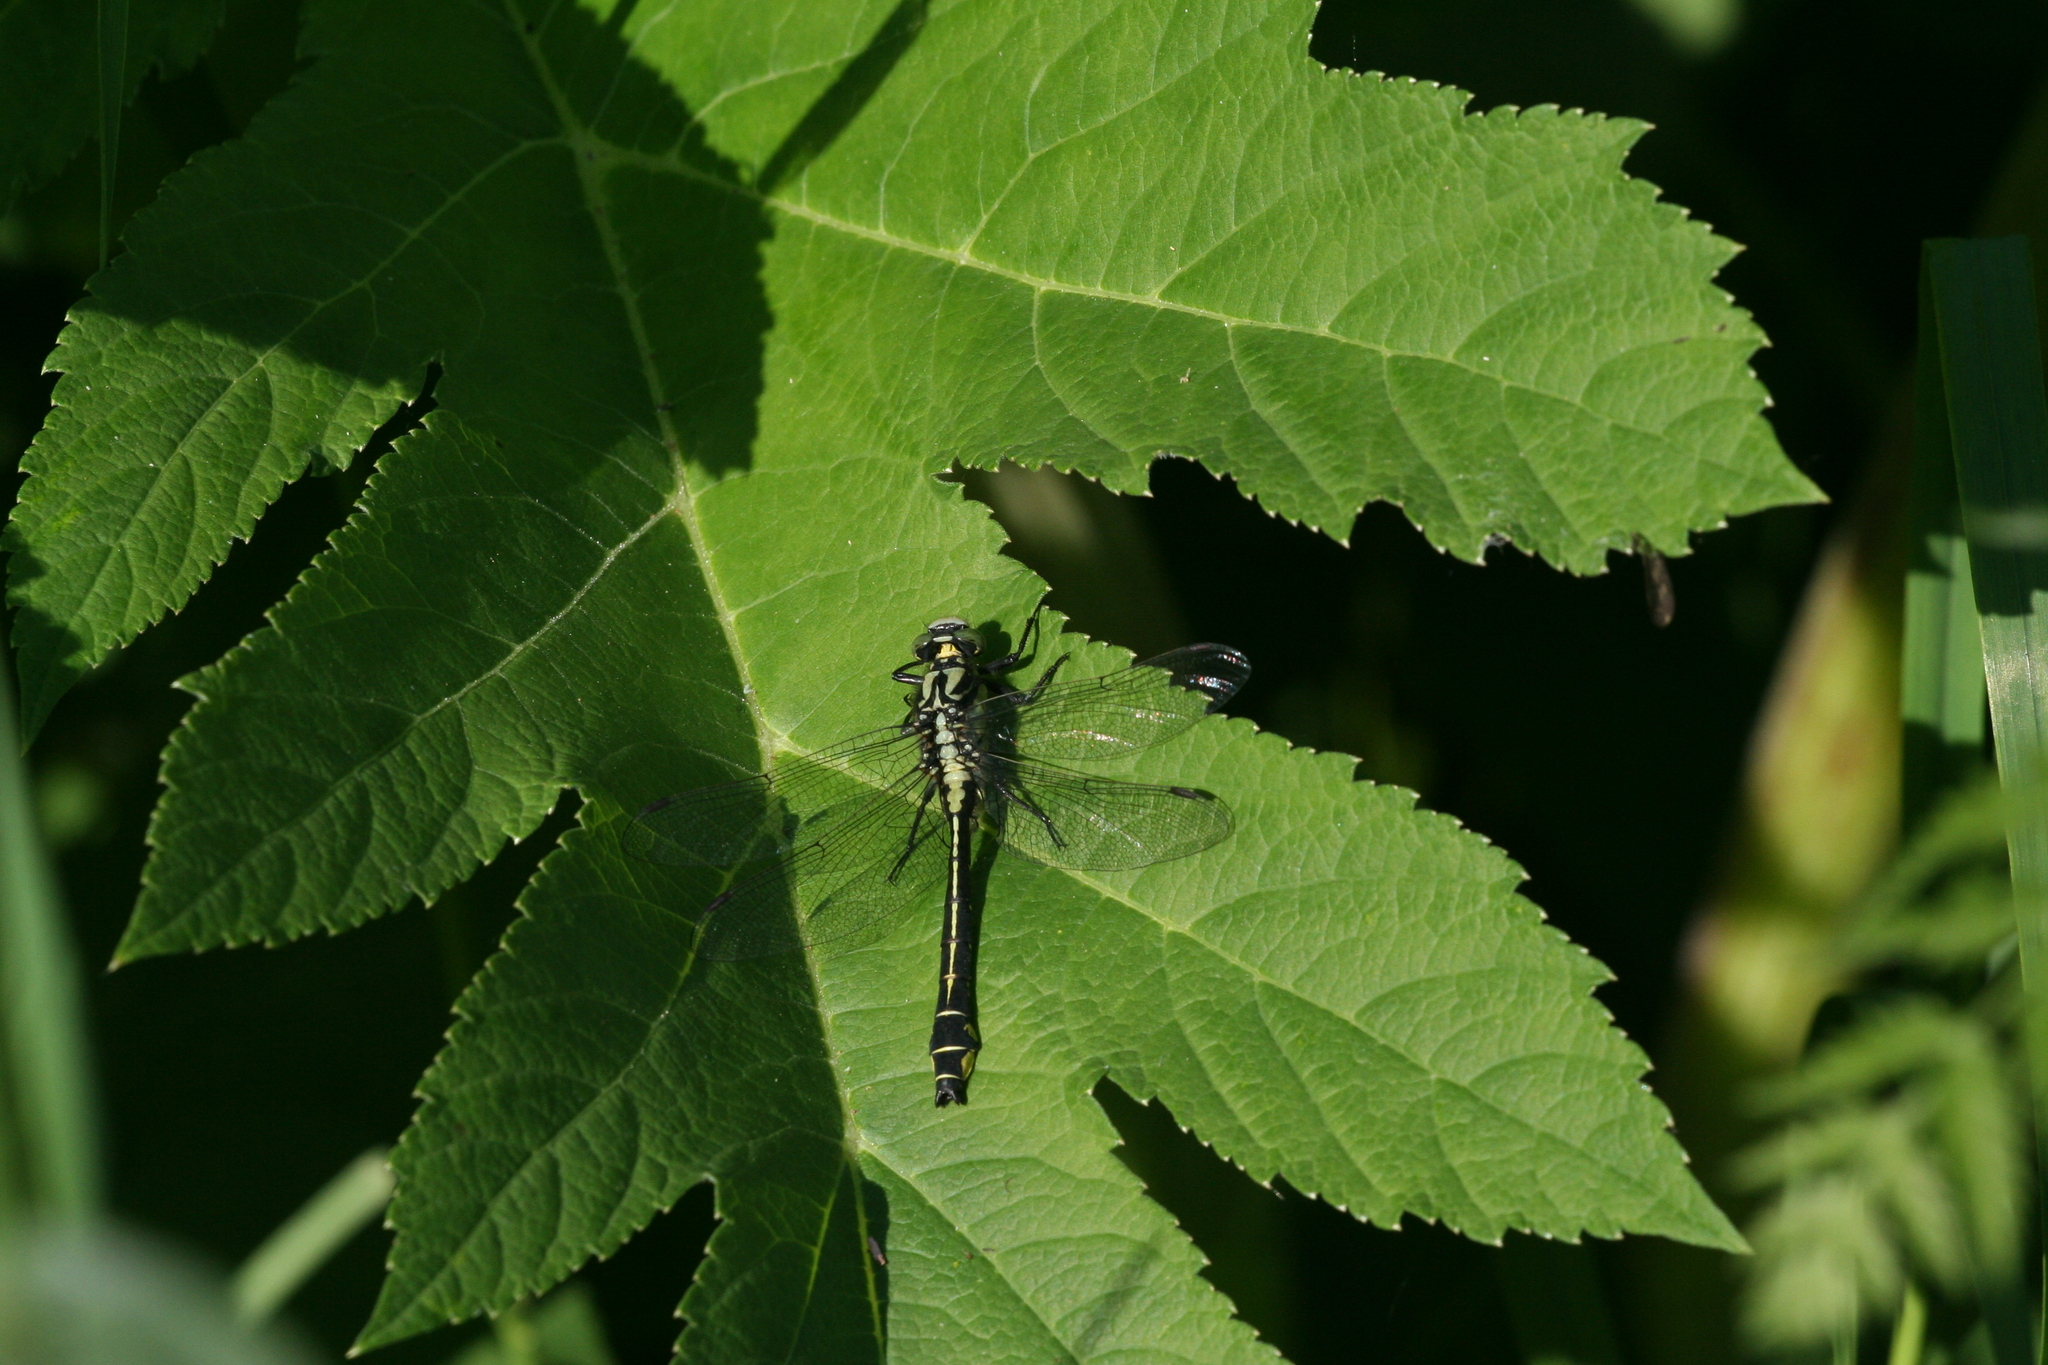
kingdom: Animalia
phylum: Arthropoda
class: Insecta
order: Odonata
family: Gomphidae
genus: Gomphus
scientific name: Gomphus vulgatissimus
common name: Club-tailed dragonfly
